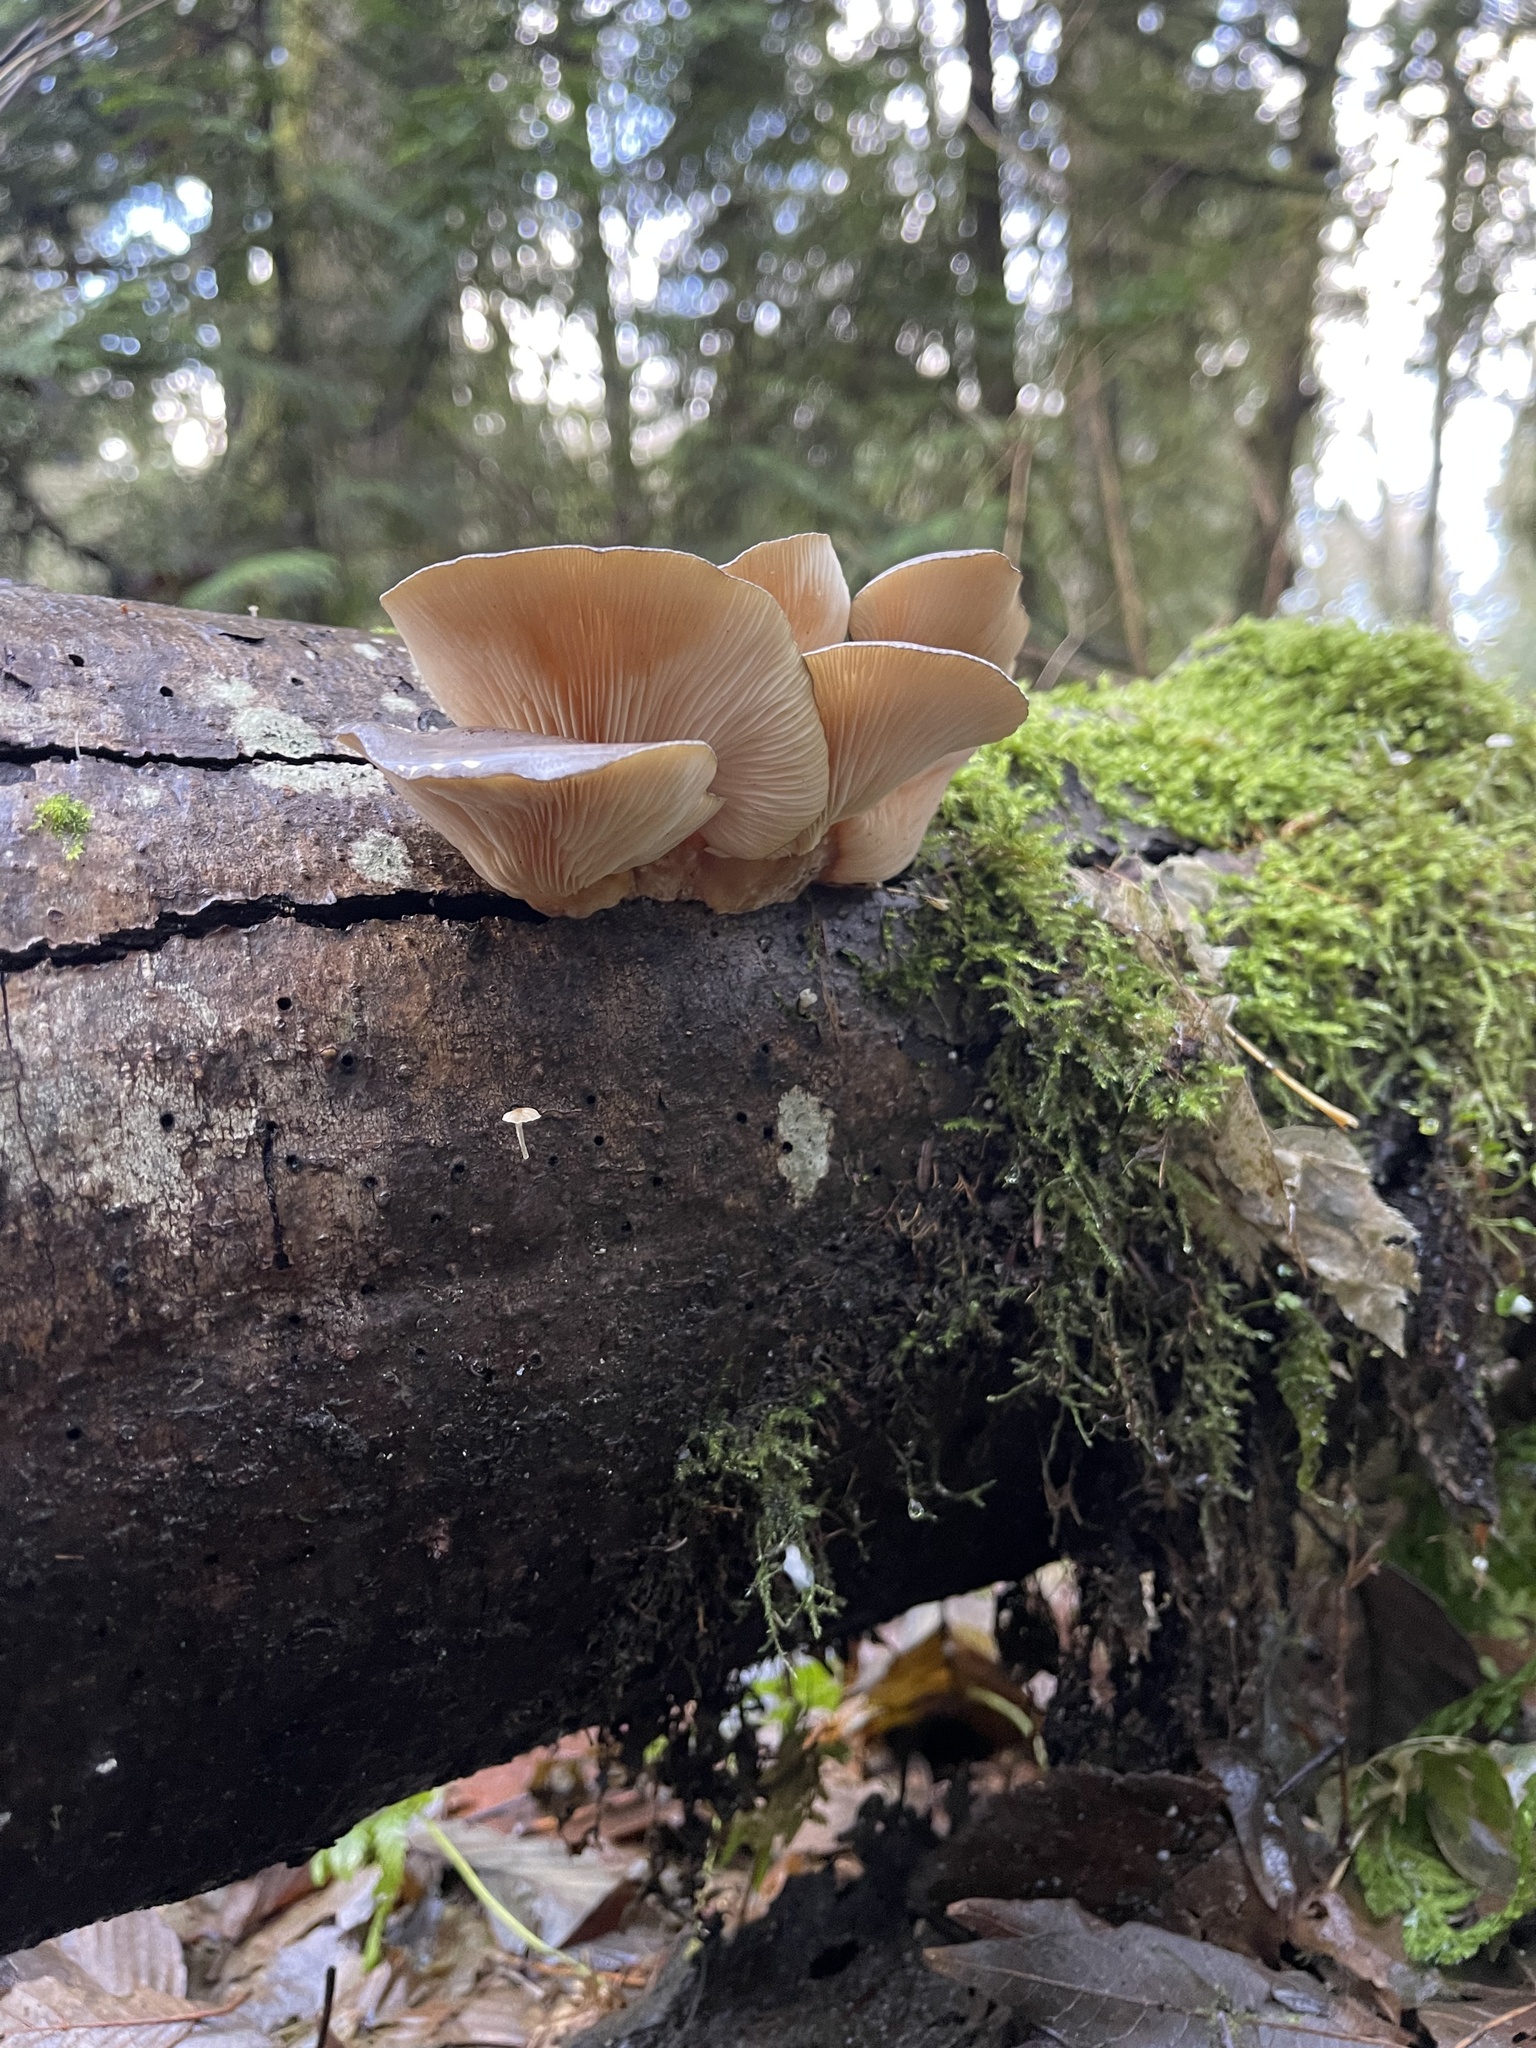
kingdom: Fungi
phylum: Basidiomycota
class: Agaricomycetes
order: Agaricales
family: Sarcomyxaceae
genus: Sarcomyxa
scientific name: Sarcomyxa serotina
